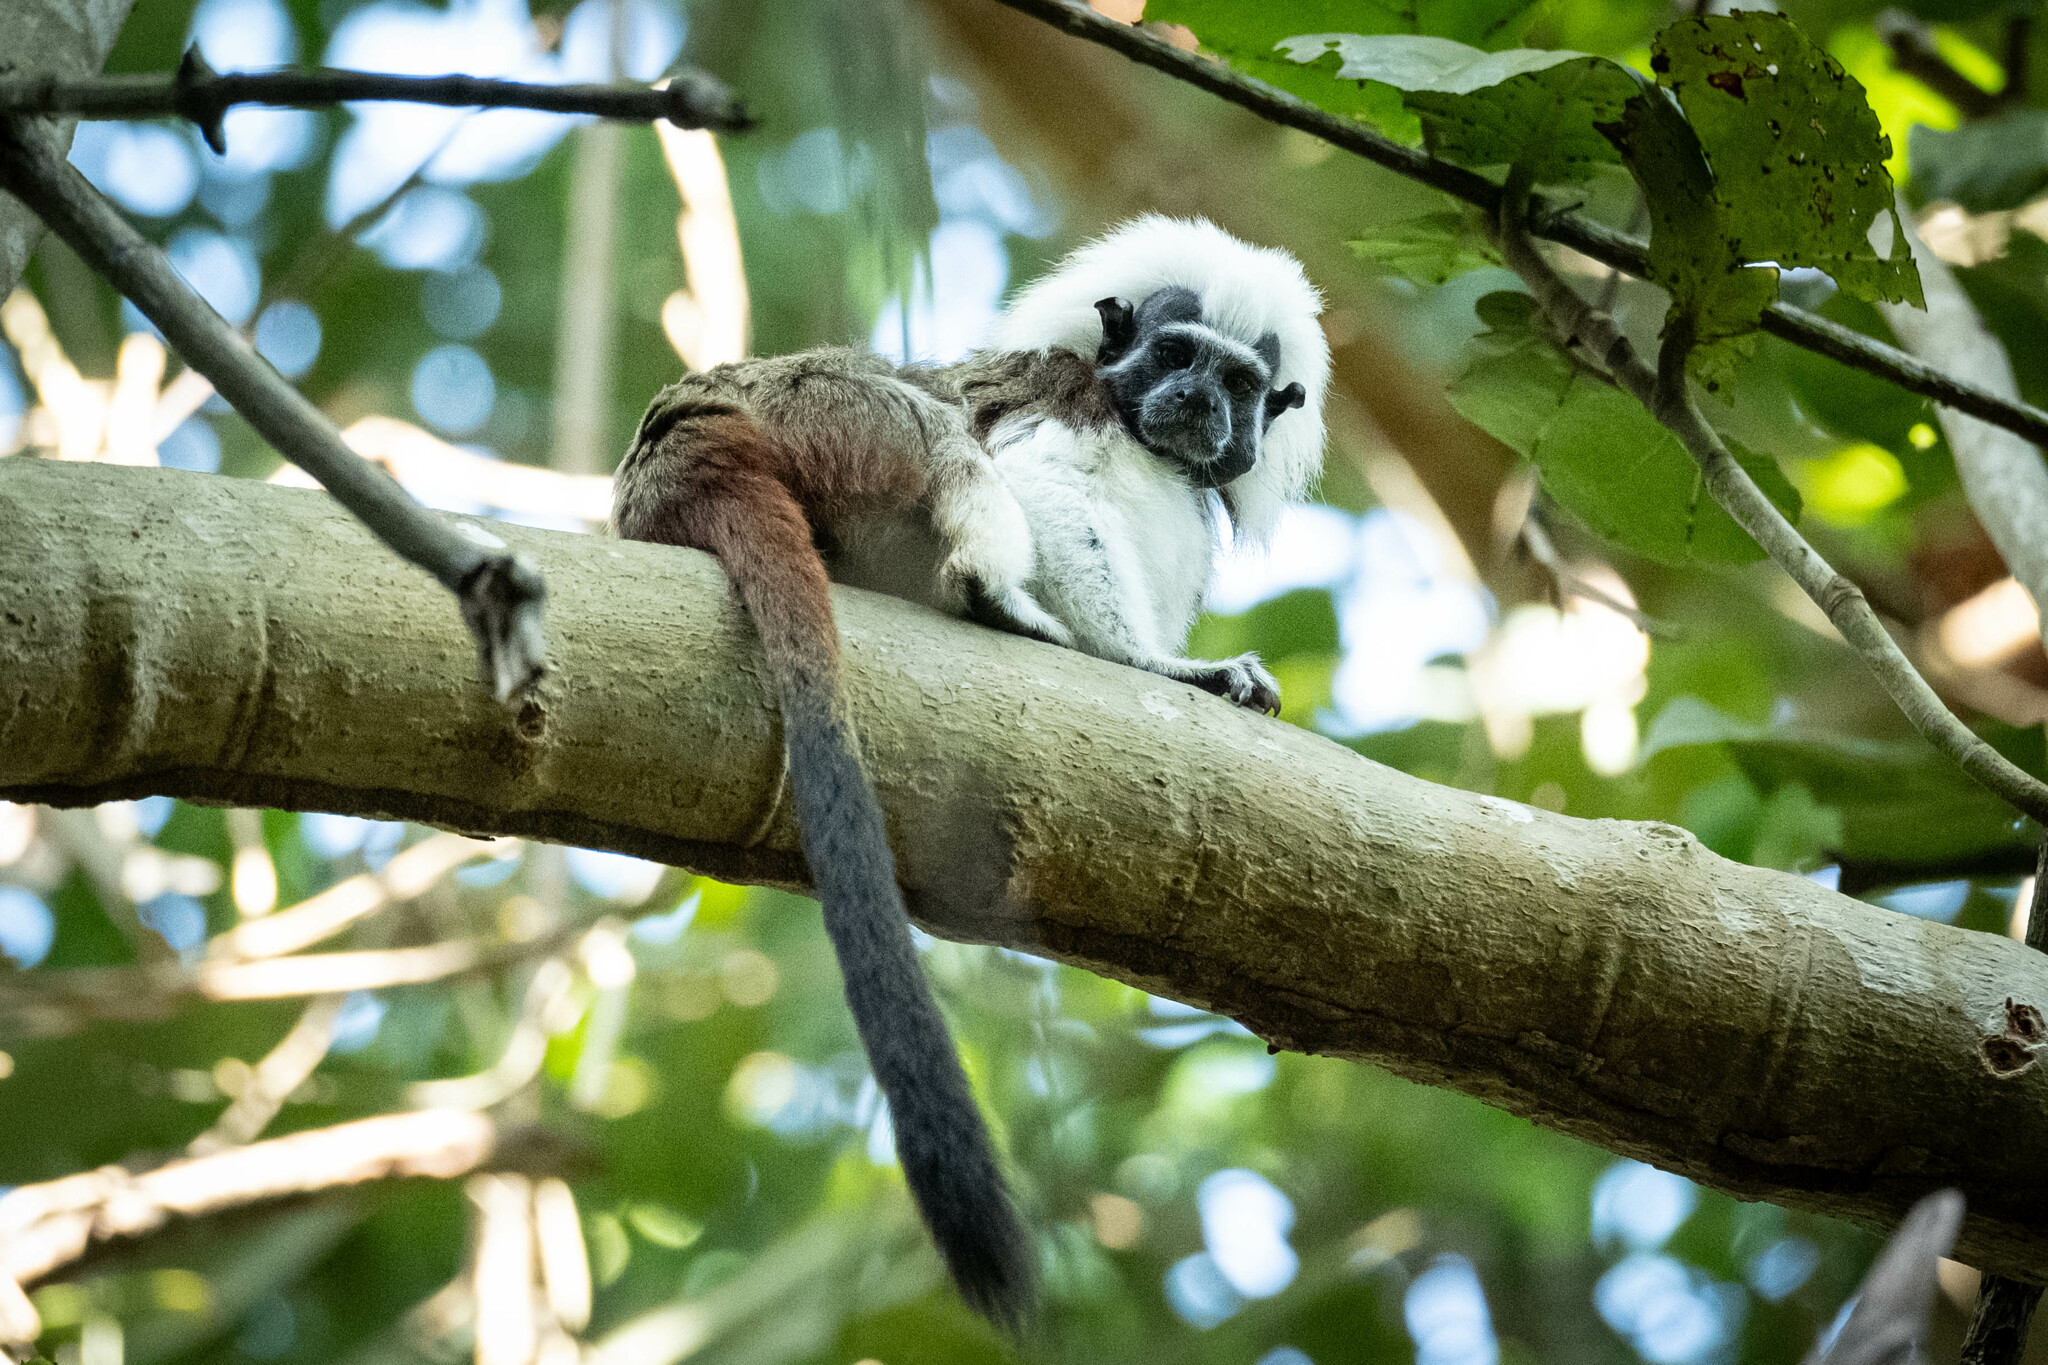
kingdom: Animalia
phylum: Chordata
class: Mammalia
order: Primates
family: Callitrichidae
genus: Saguinus
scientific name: Saguinus oedipus
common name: Cottontop tamarin
